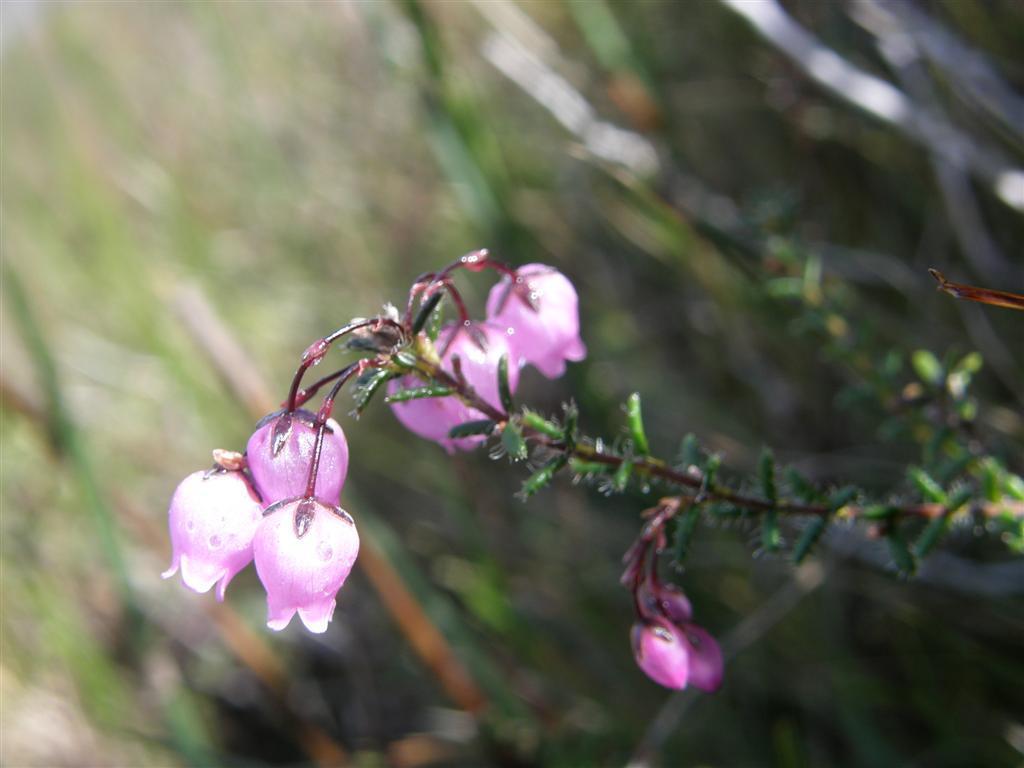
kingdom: Plantae
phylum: Tracheophyta
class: Magnoliopsida
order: Ericales
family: Ericaceae
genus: Erica
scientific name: Erica carduifolia
